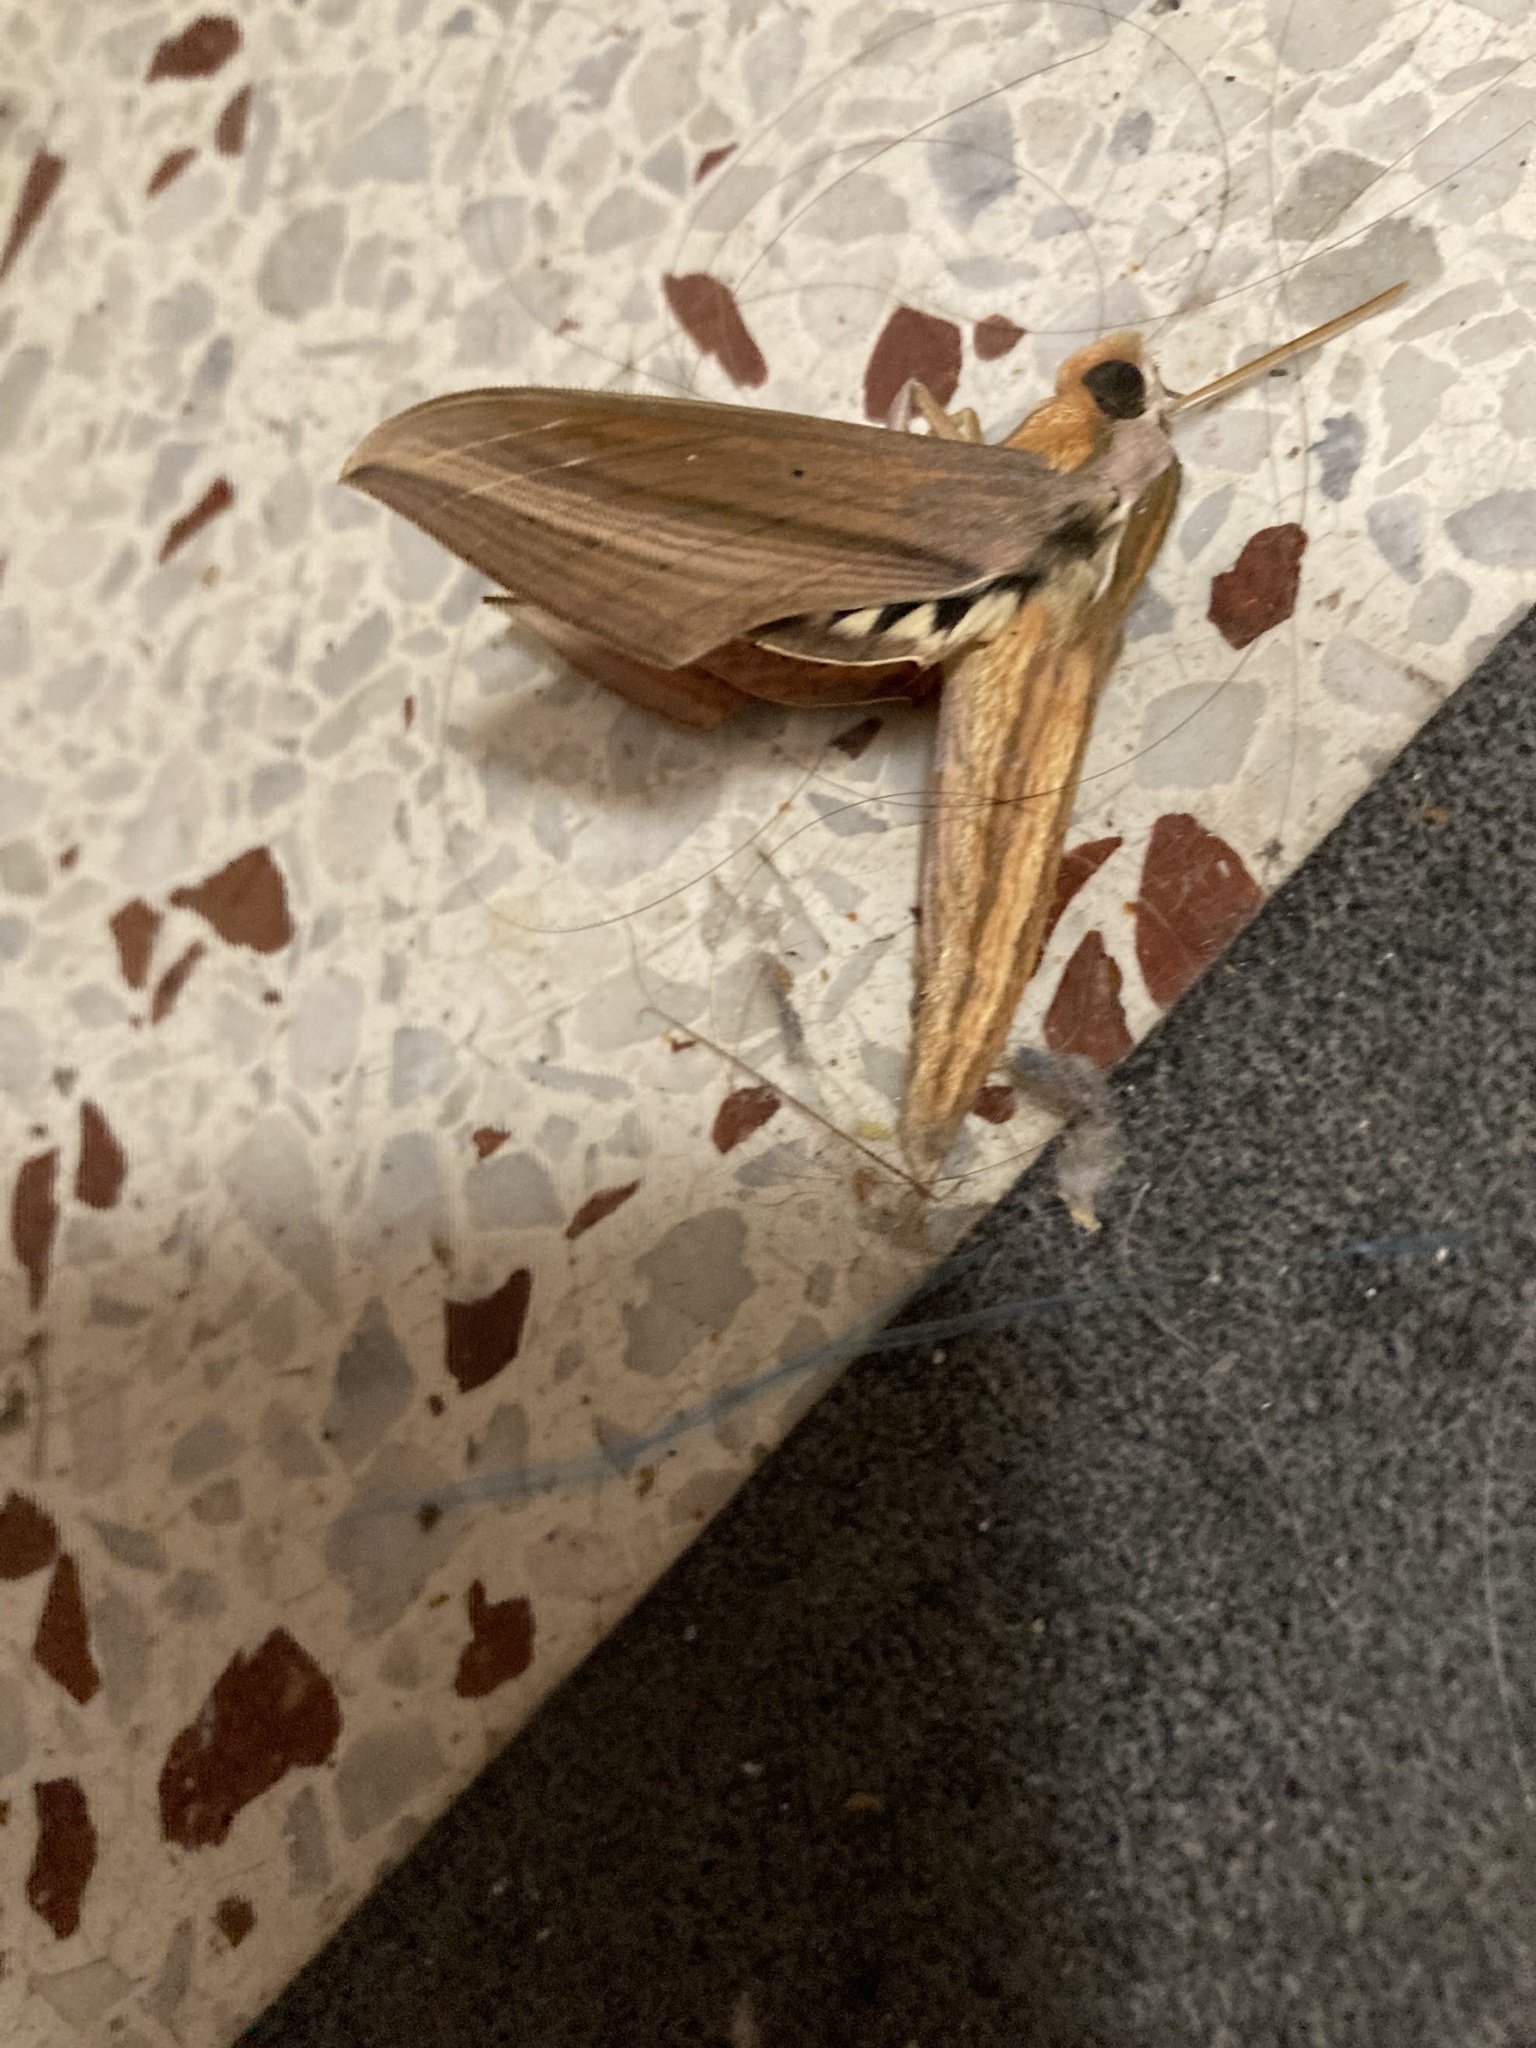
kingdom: Animalia
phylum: Arthropoda
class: Insecta
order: Lepidoptera
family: Sphingidae
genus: Xylophanes
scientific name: Xylophanes tersa
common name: Tersa sphinx
